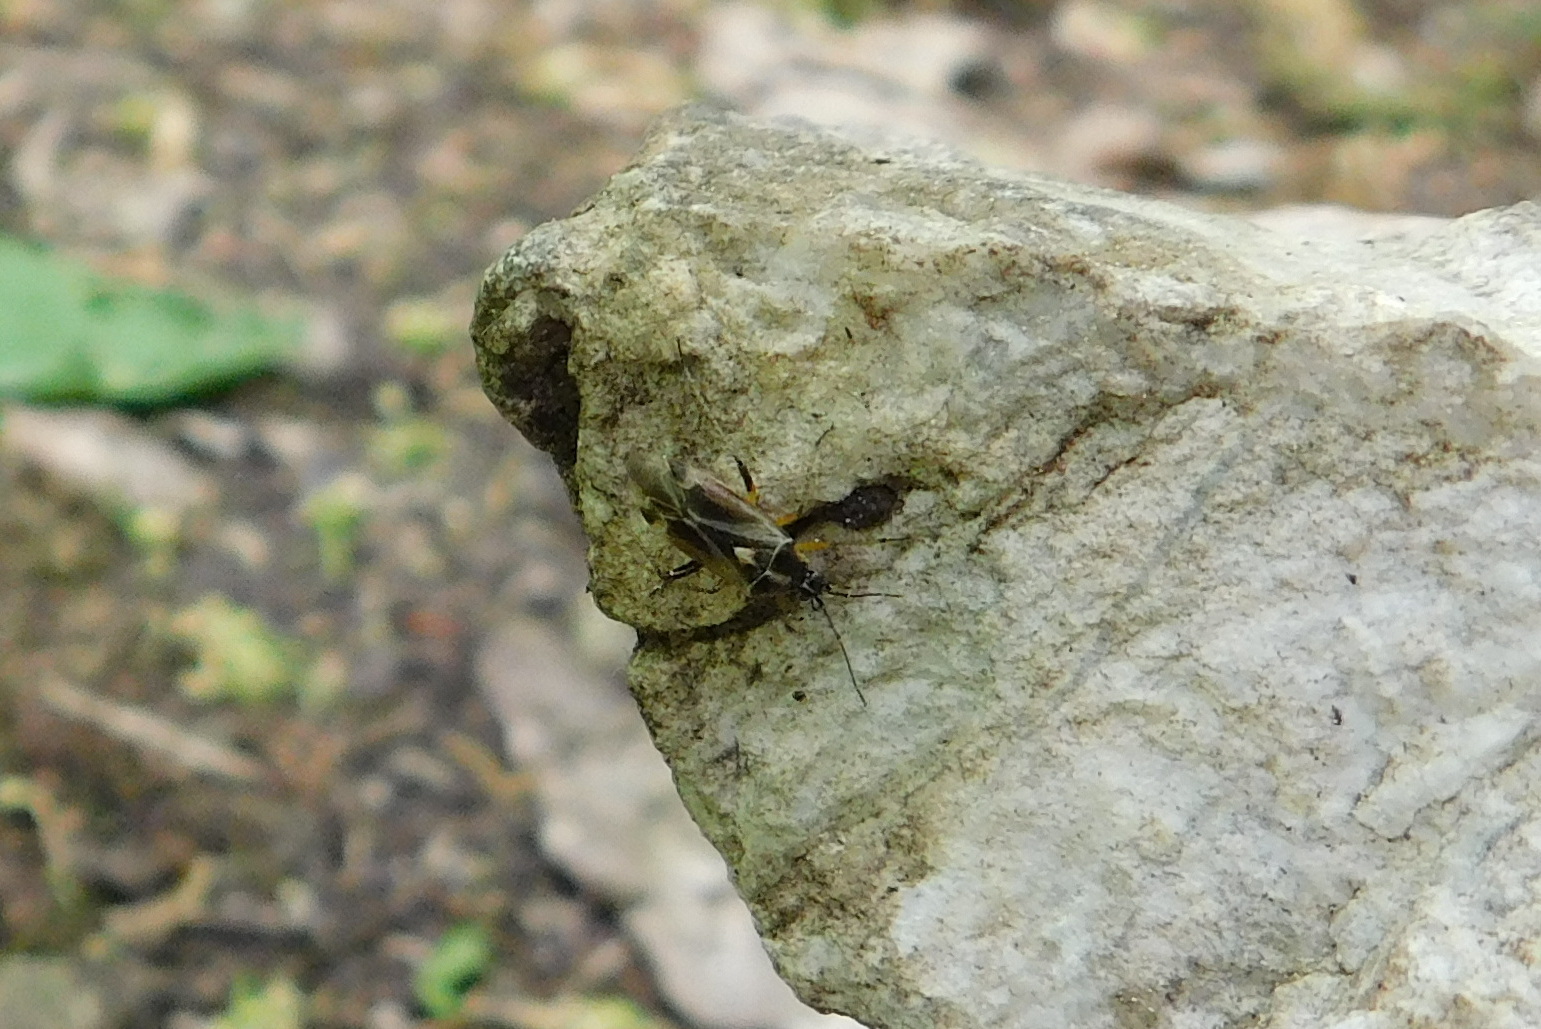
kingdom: Animalia
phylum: Arthropoda
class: Insecta
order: Hemiptera
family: Miridae
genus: Harpocera
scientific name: Harpocera thoracica
